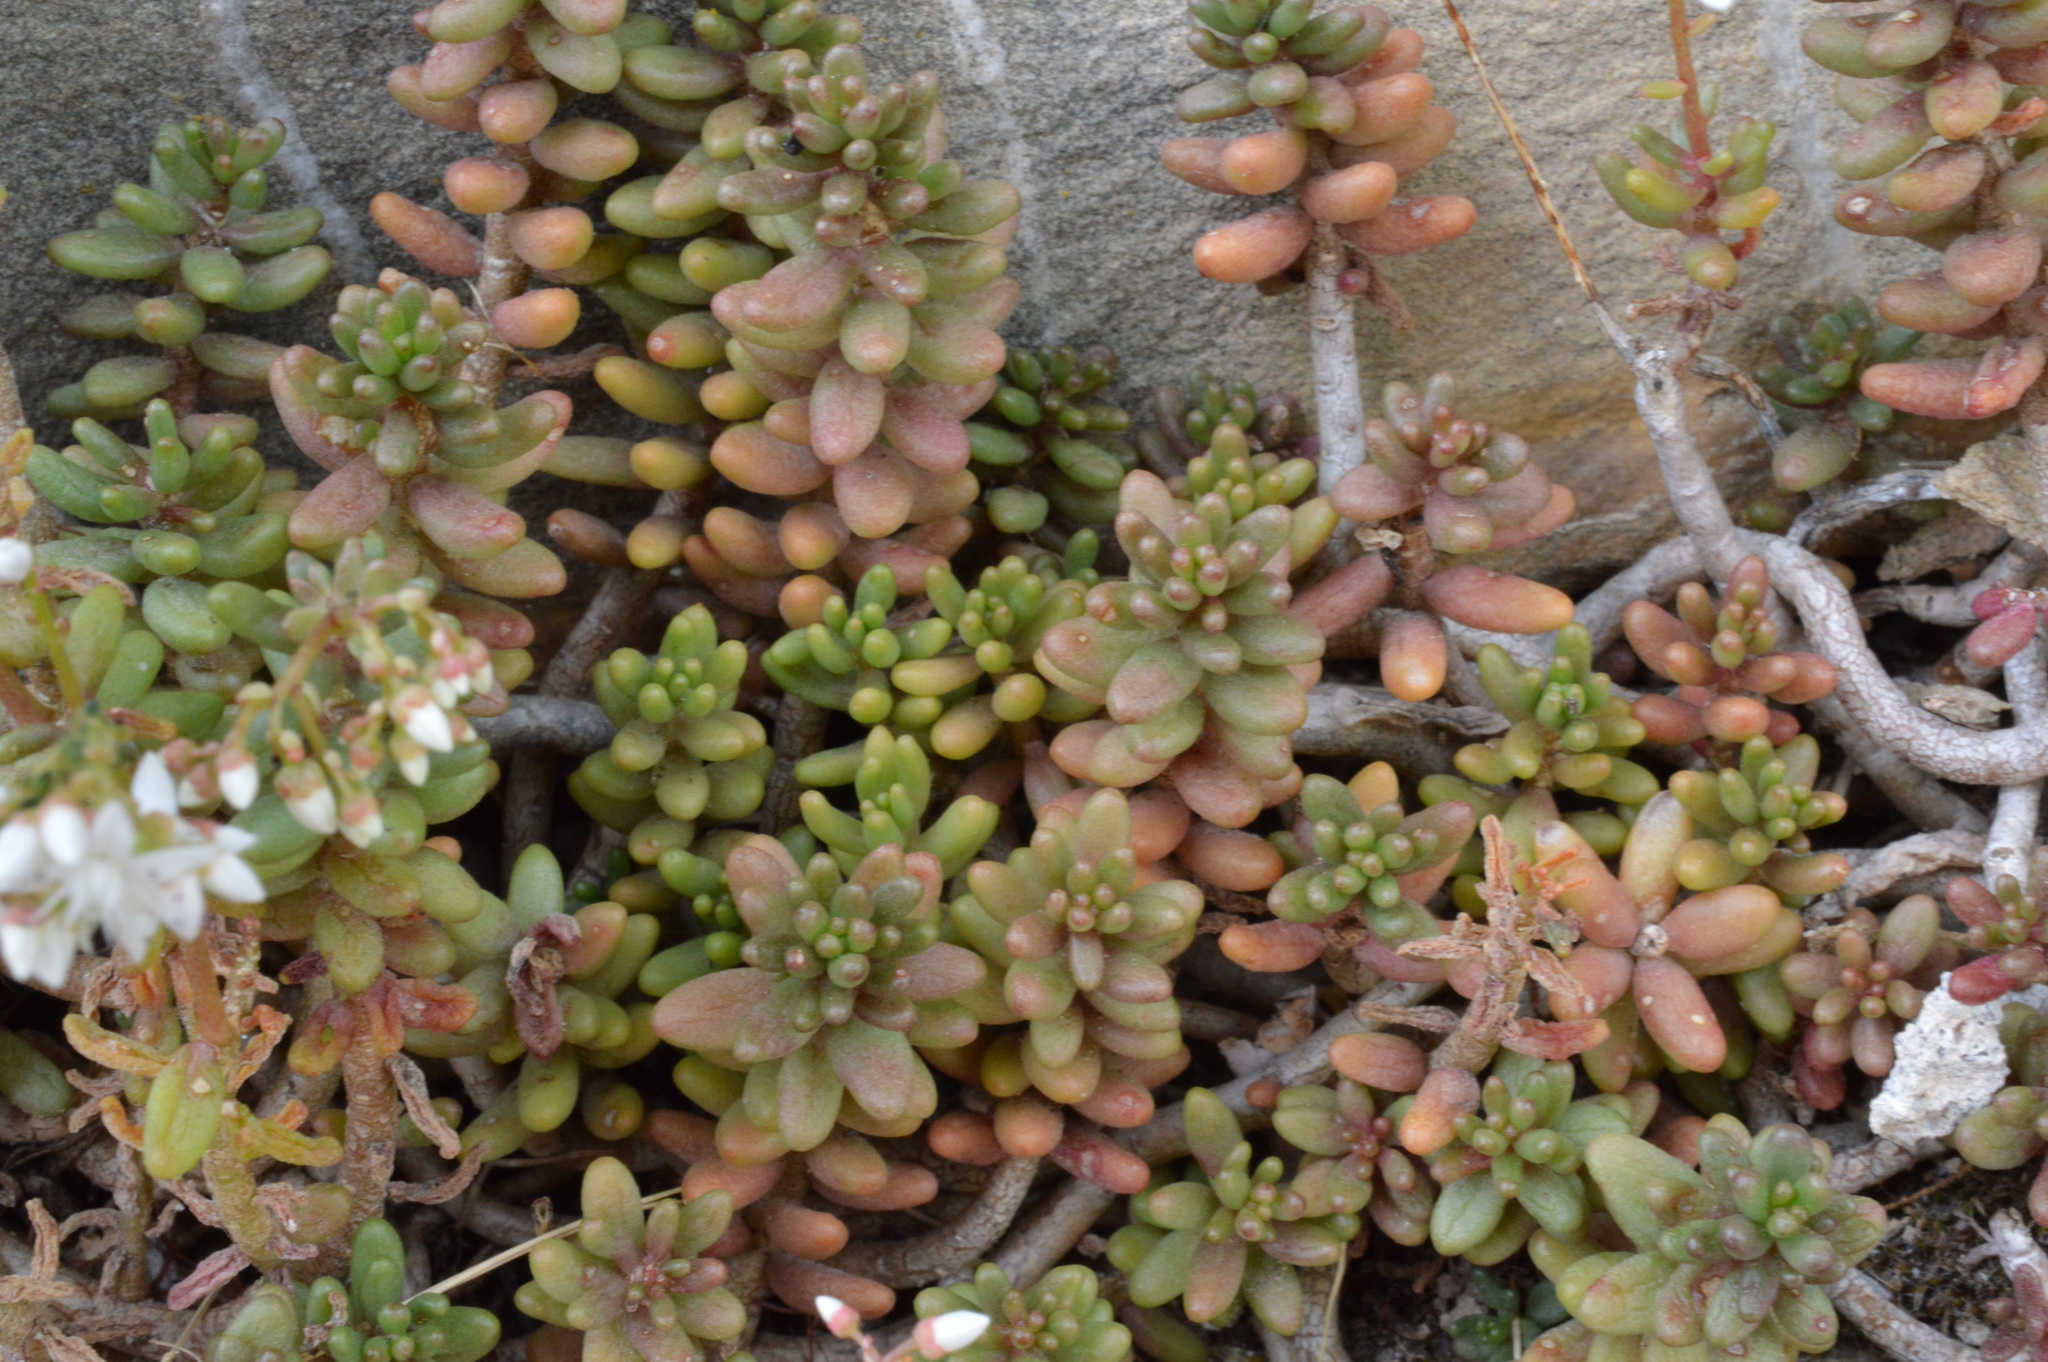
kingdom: Plantae
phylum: Tracheophyta
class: Magnoliopsida
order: Saxifragales
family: Crassulaceae
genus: Sedum
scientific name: Sedum album
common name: White stonecrop
